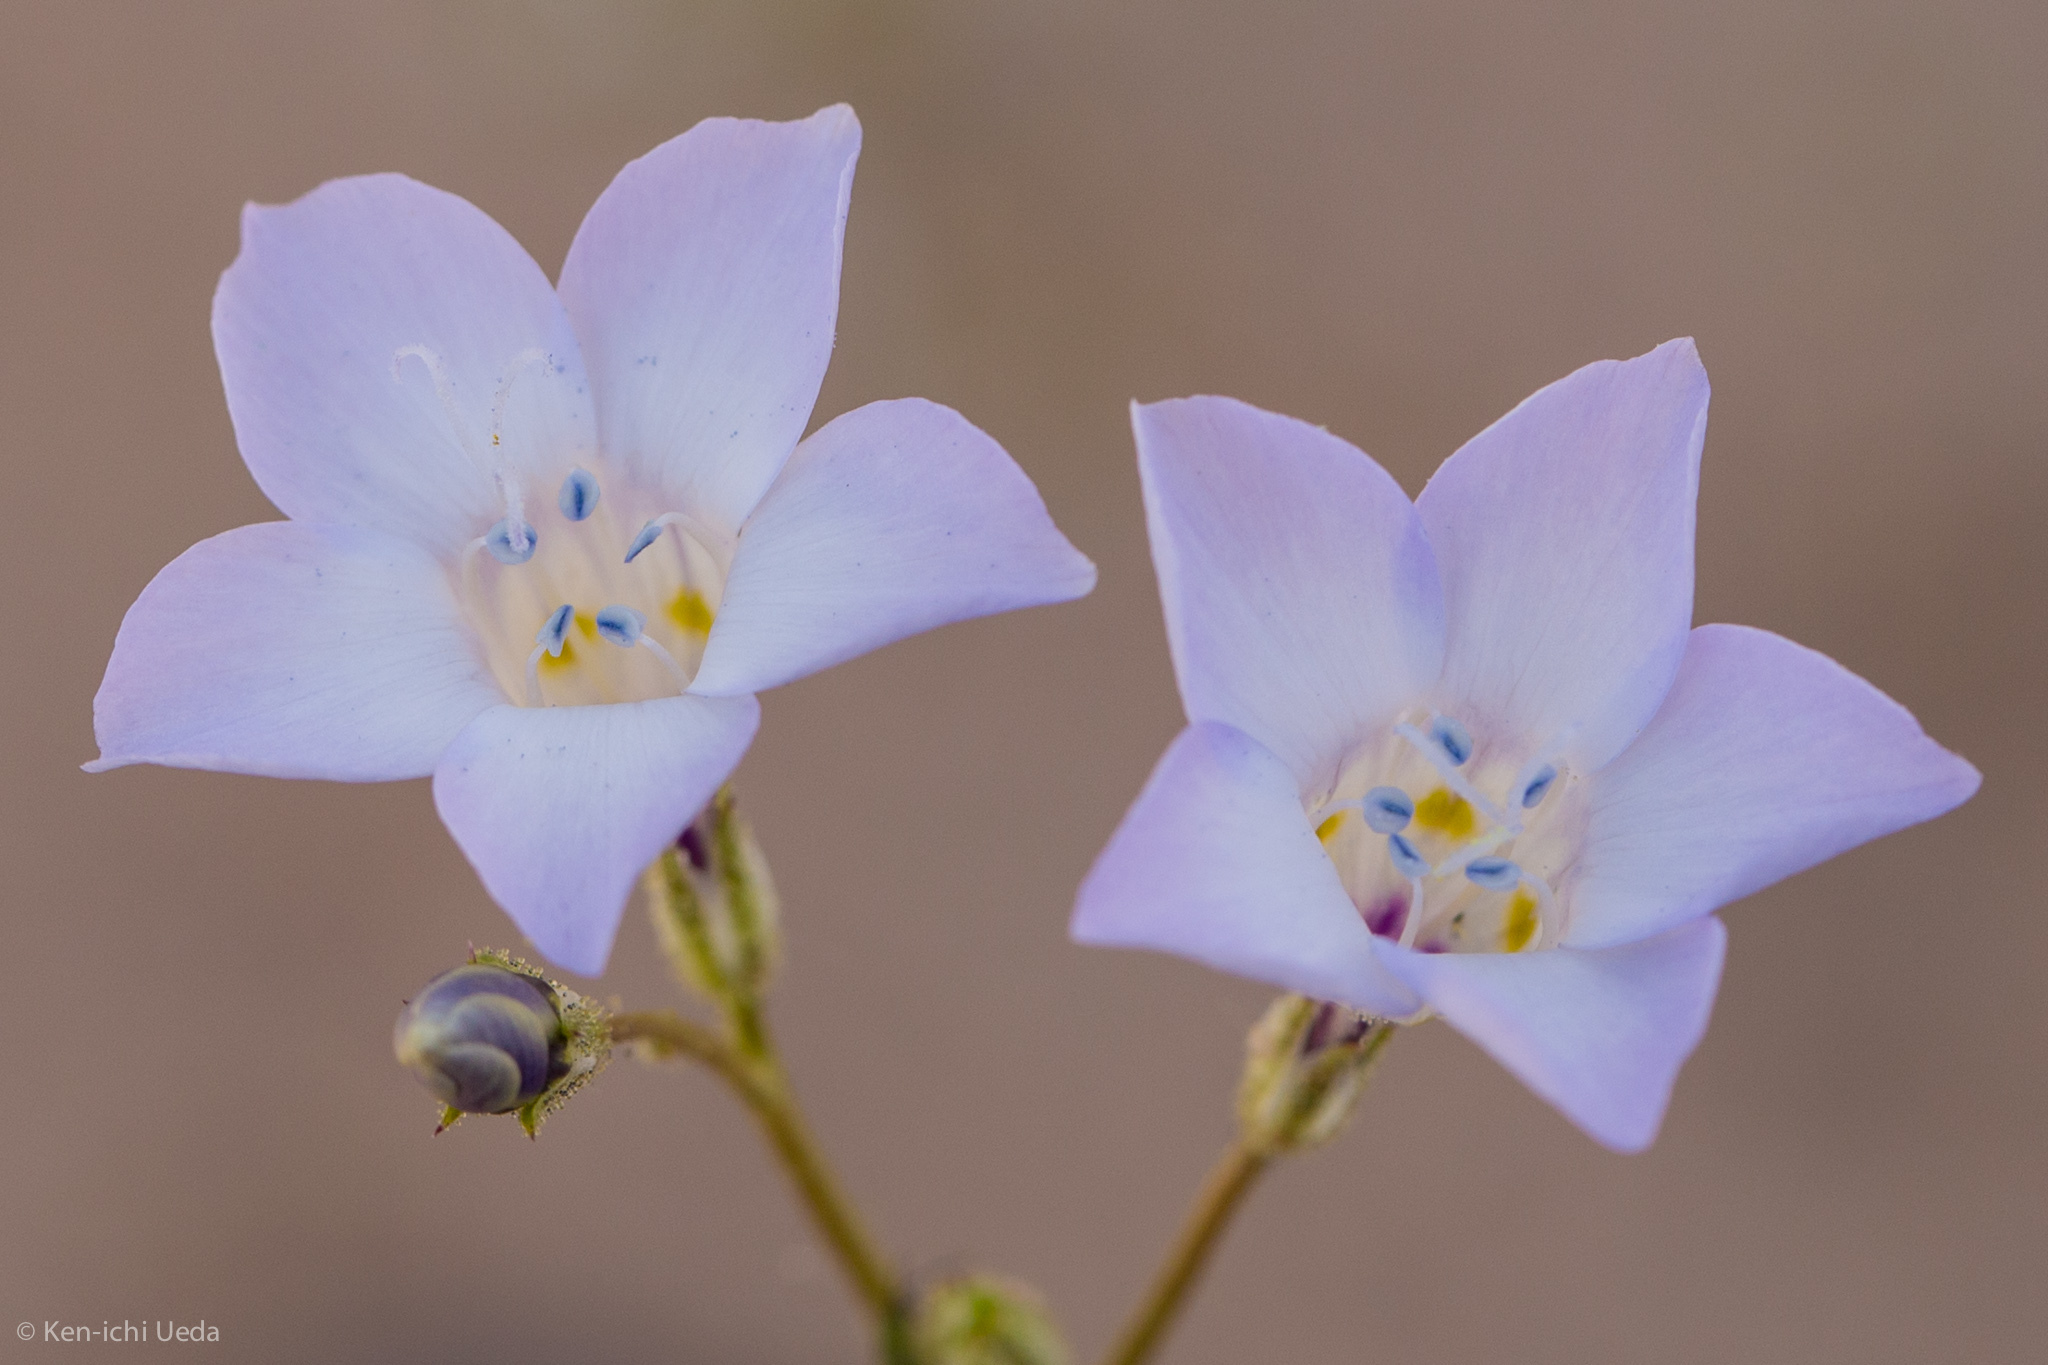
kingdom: Plantae
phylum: Tracheophyta
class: Magnoliopsida
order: Ericales
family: Polemoniaceae
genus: Gilia
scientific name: Gilia latiflora
